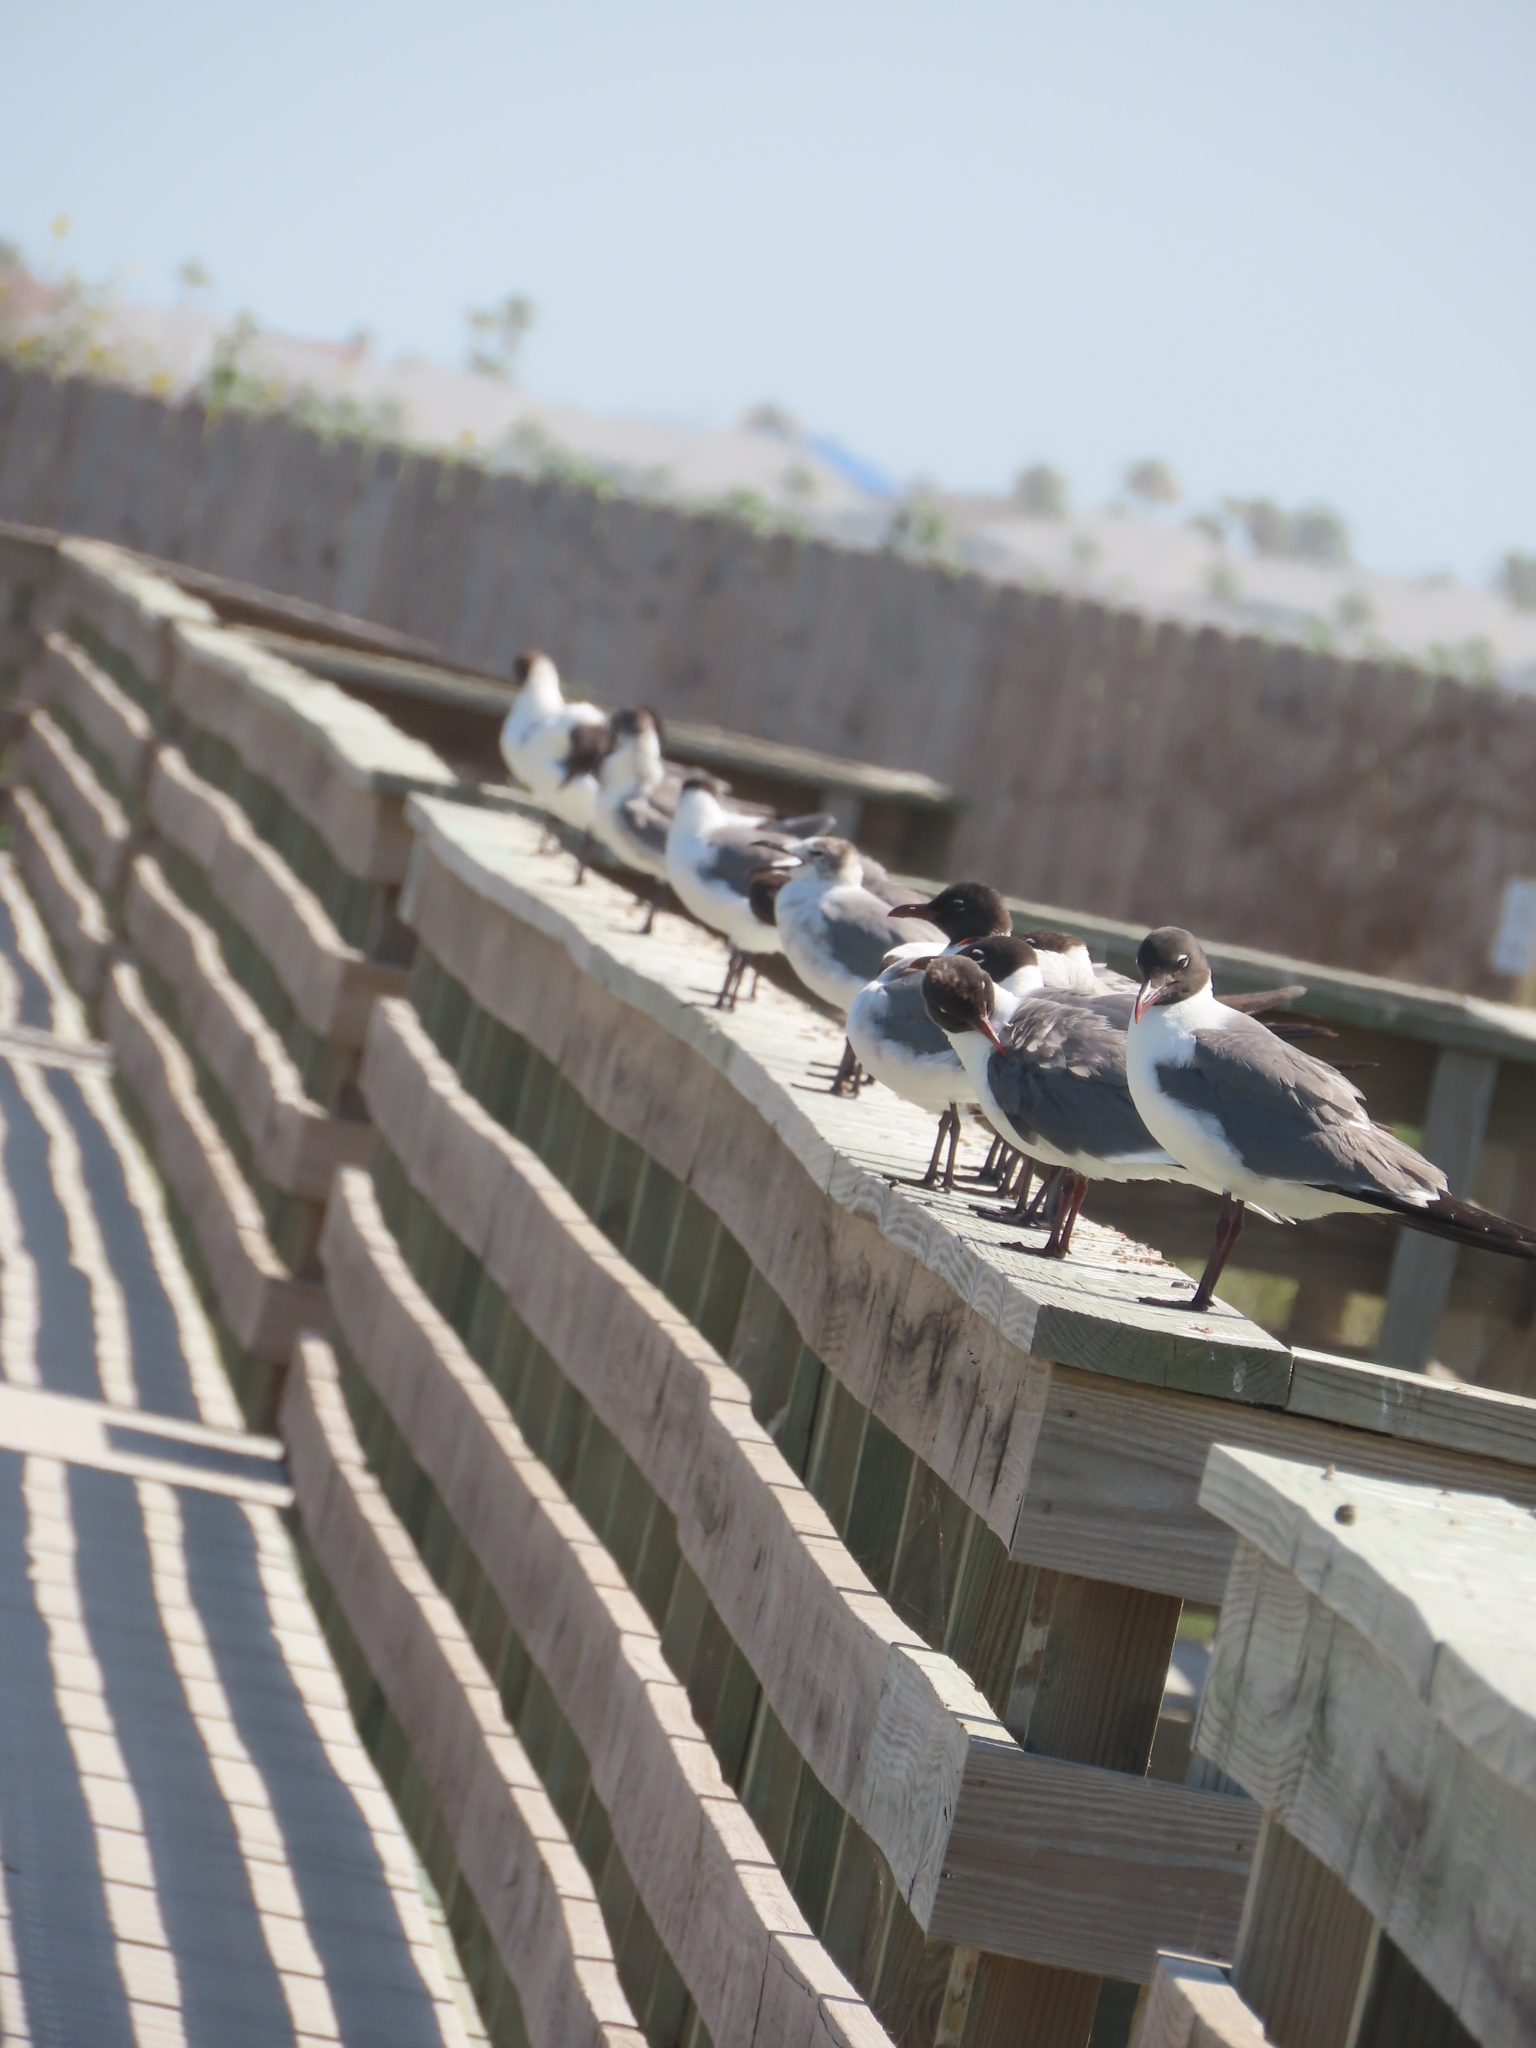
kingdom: Animalia
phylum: Chordata
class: Aves
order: Charadriiformes
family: Laridae
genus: Leucophaeus
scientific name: Leucophaeus atricilla
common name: Laughing gull
